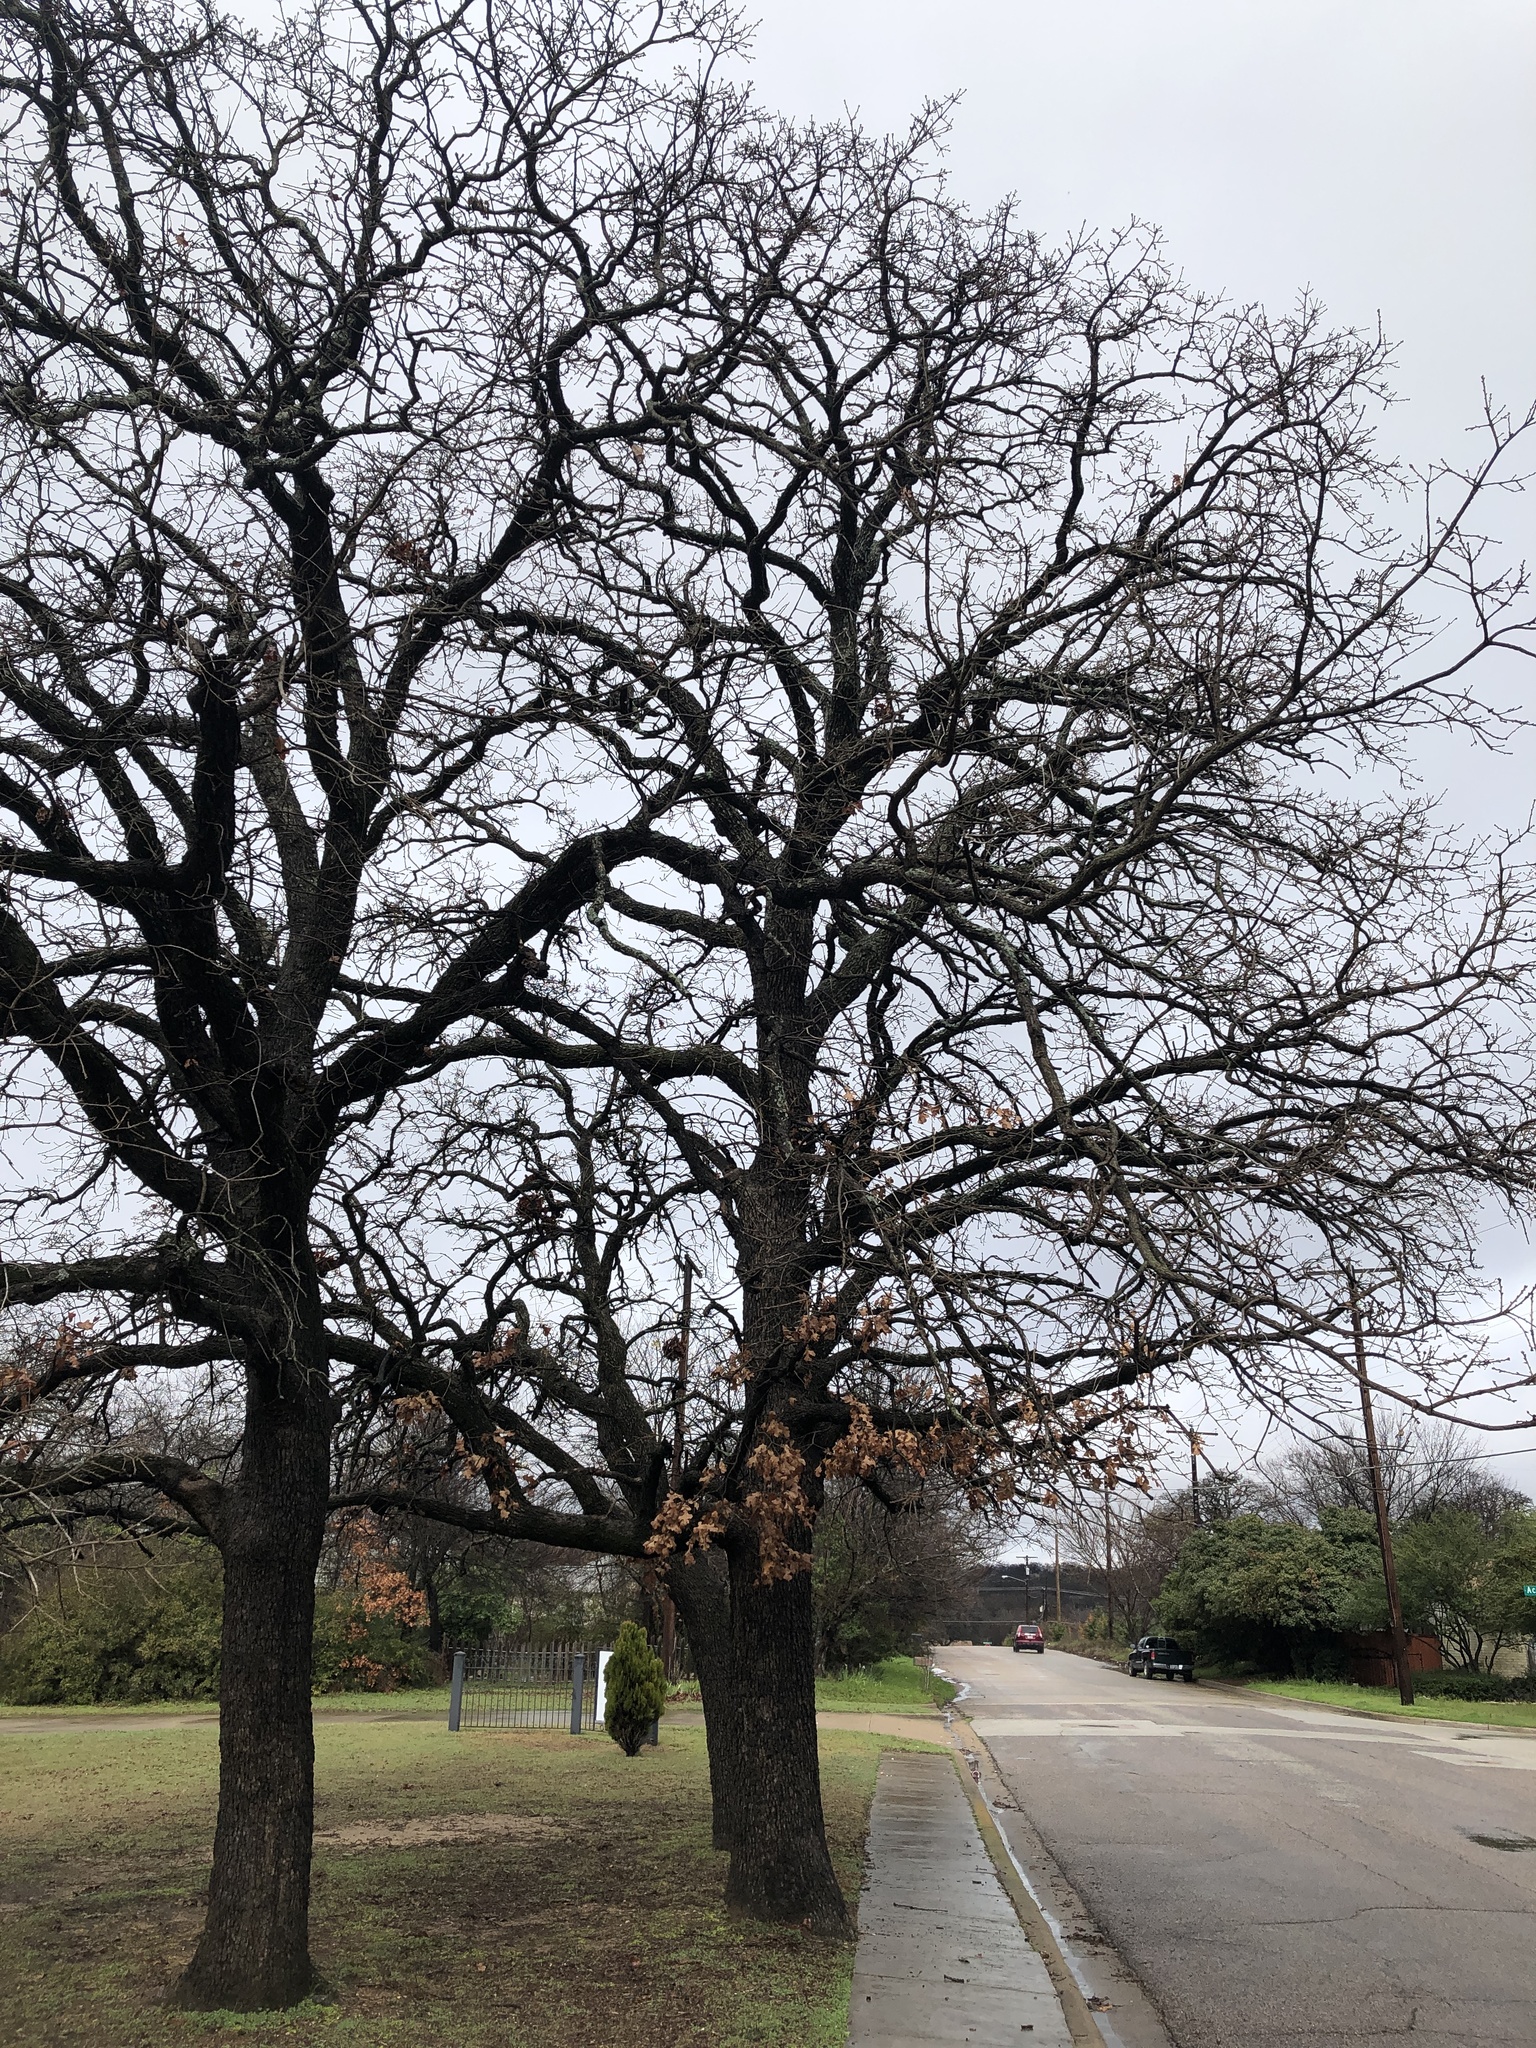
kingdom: Plantae
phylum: Tracheophyta
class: Magnoliopsida
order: Fagales
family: Fagaceae
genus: Quercus
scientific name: Quercus stellata
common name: Post oak
